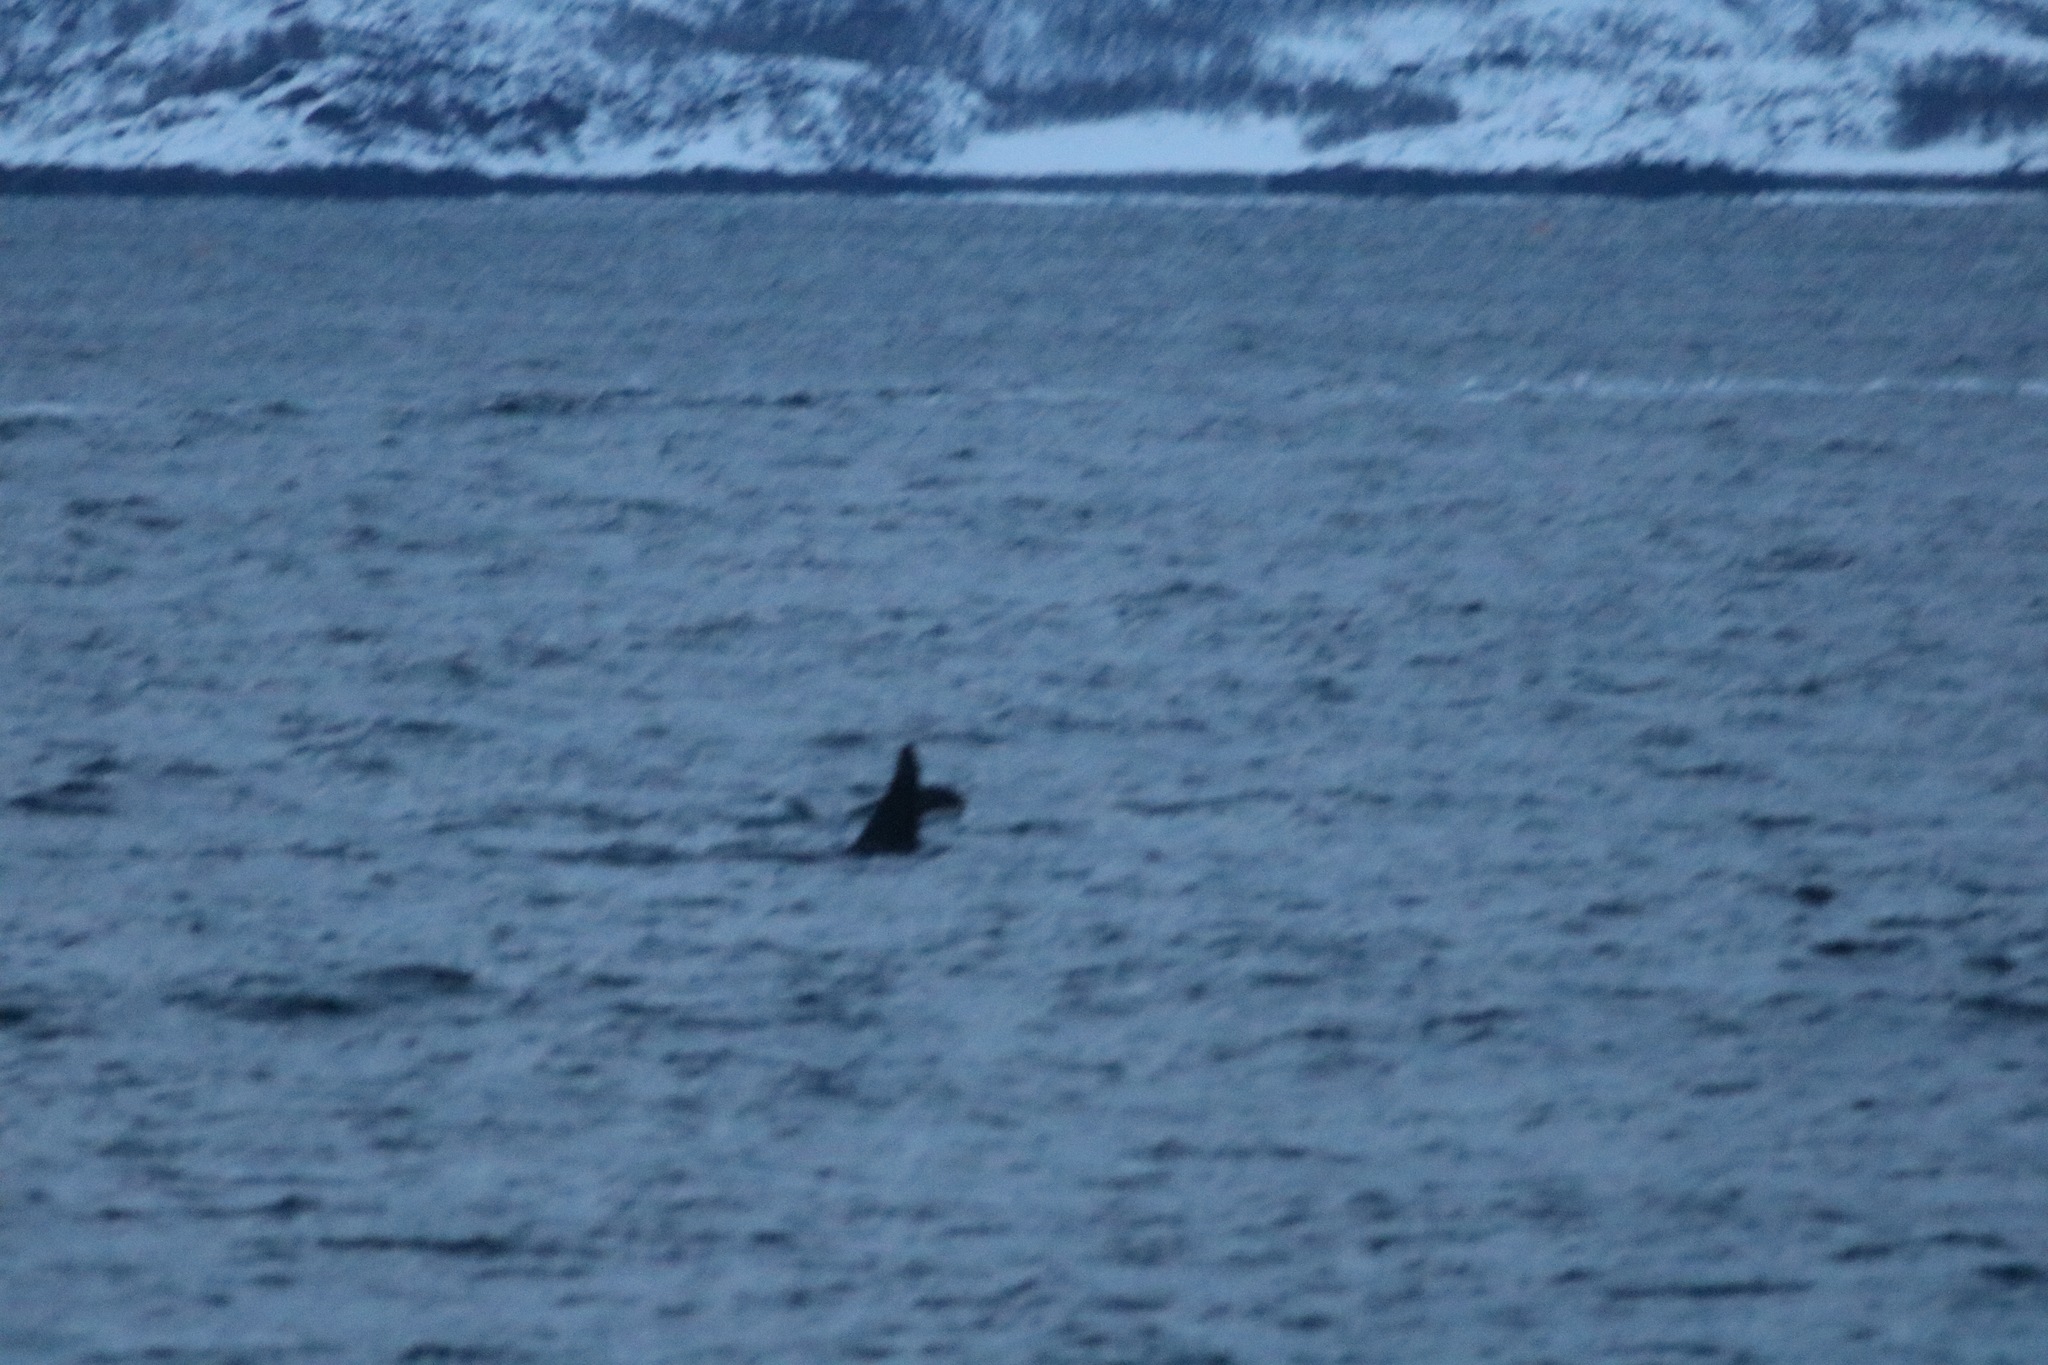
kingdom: Animalia
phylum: Chordata
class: Mammalia
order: Cetacea
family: Delphinidae
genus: Orcinus
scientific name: Orcinus orca
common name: Killer whale
